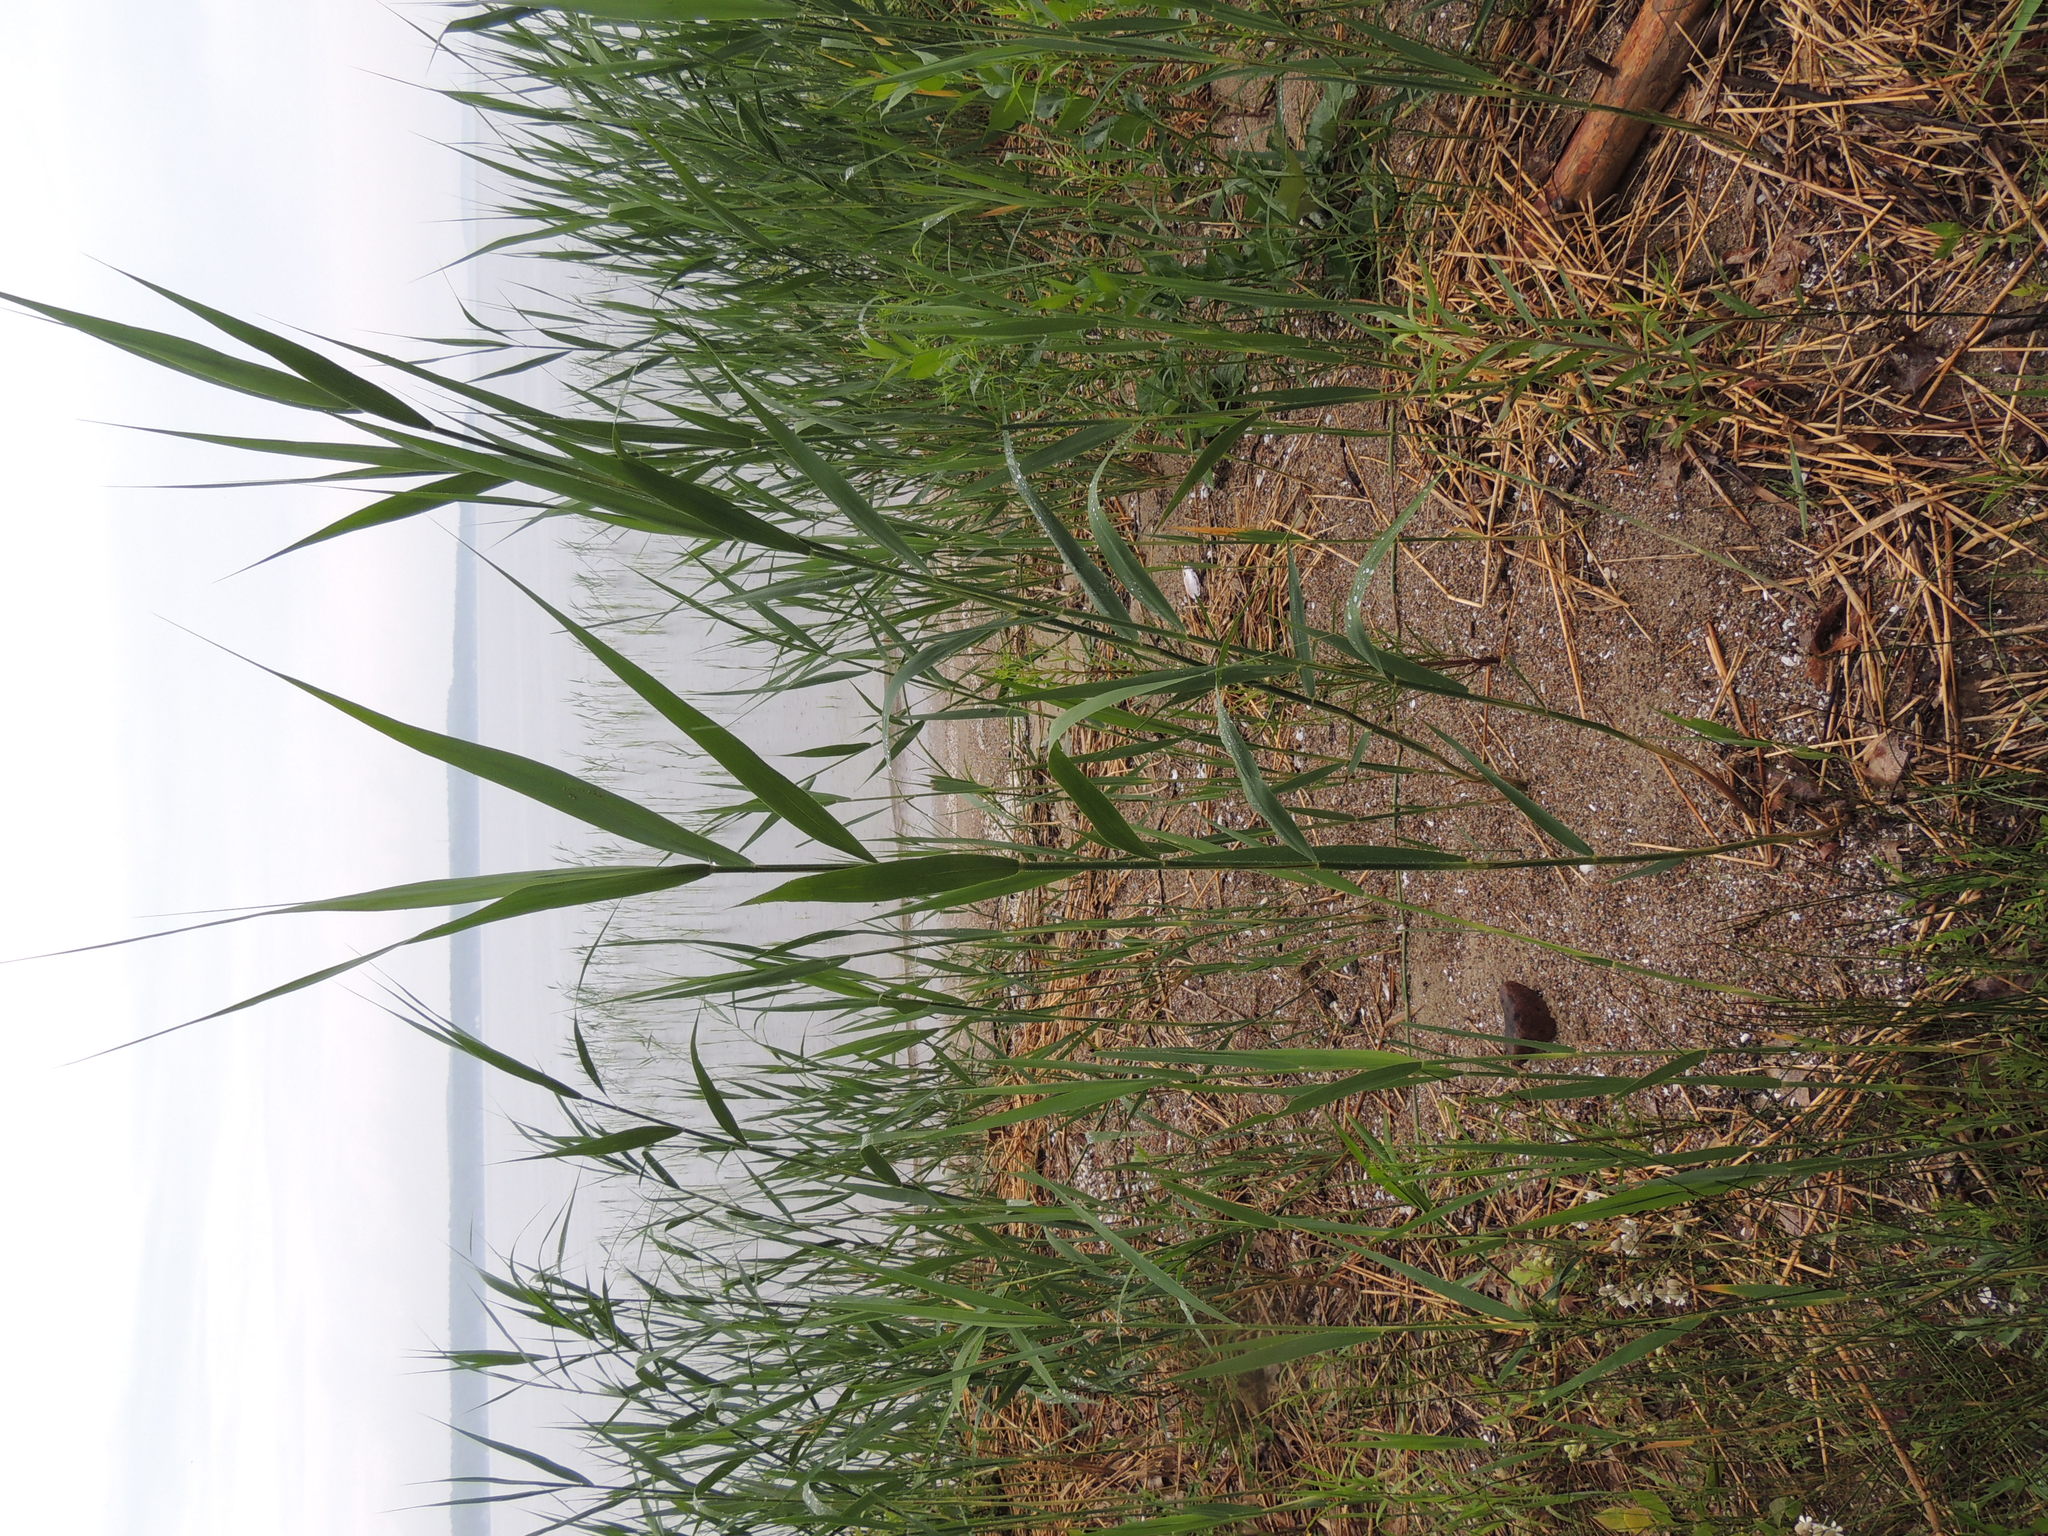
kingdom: Plantae
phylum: Tracheophyta
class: Liliopsida
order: Poales
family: Poaceae
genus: Phragmites
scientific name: Phragmites australis
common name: Common reed
